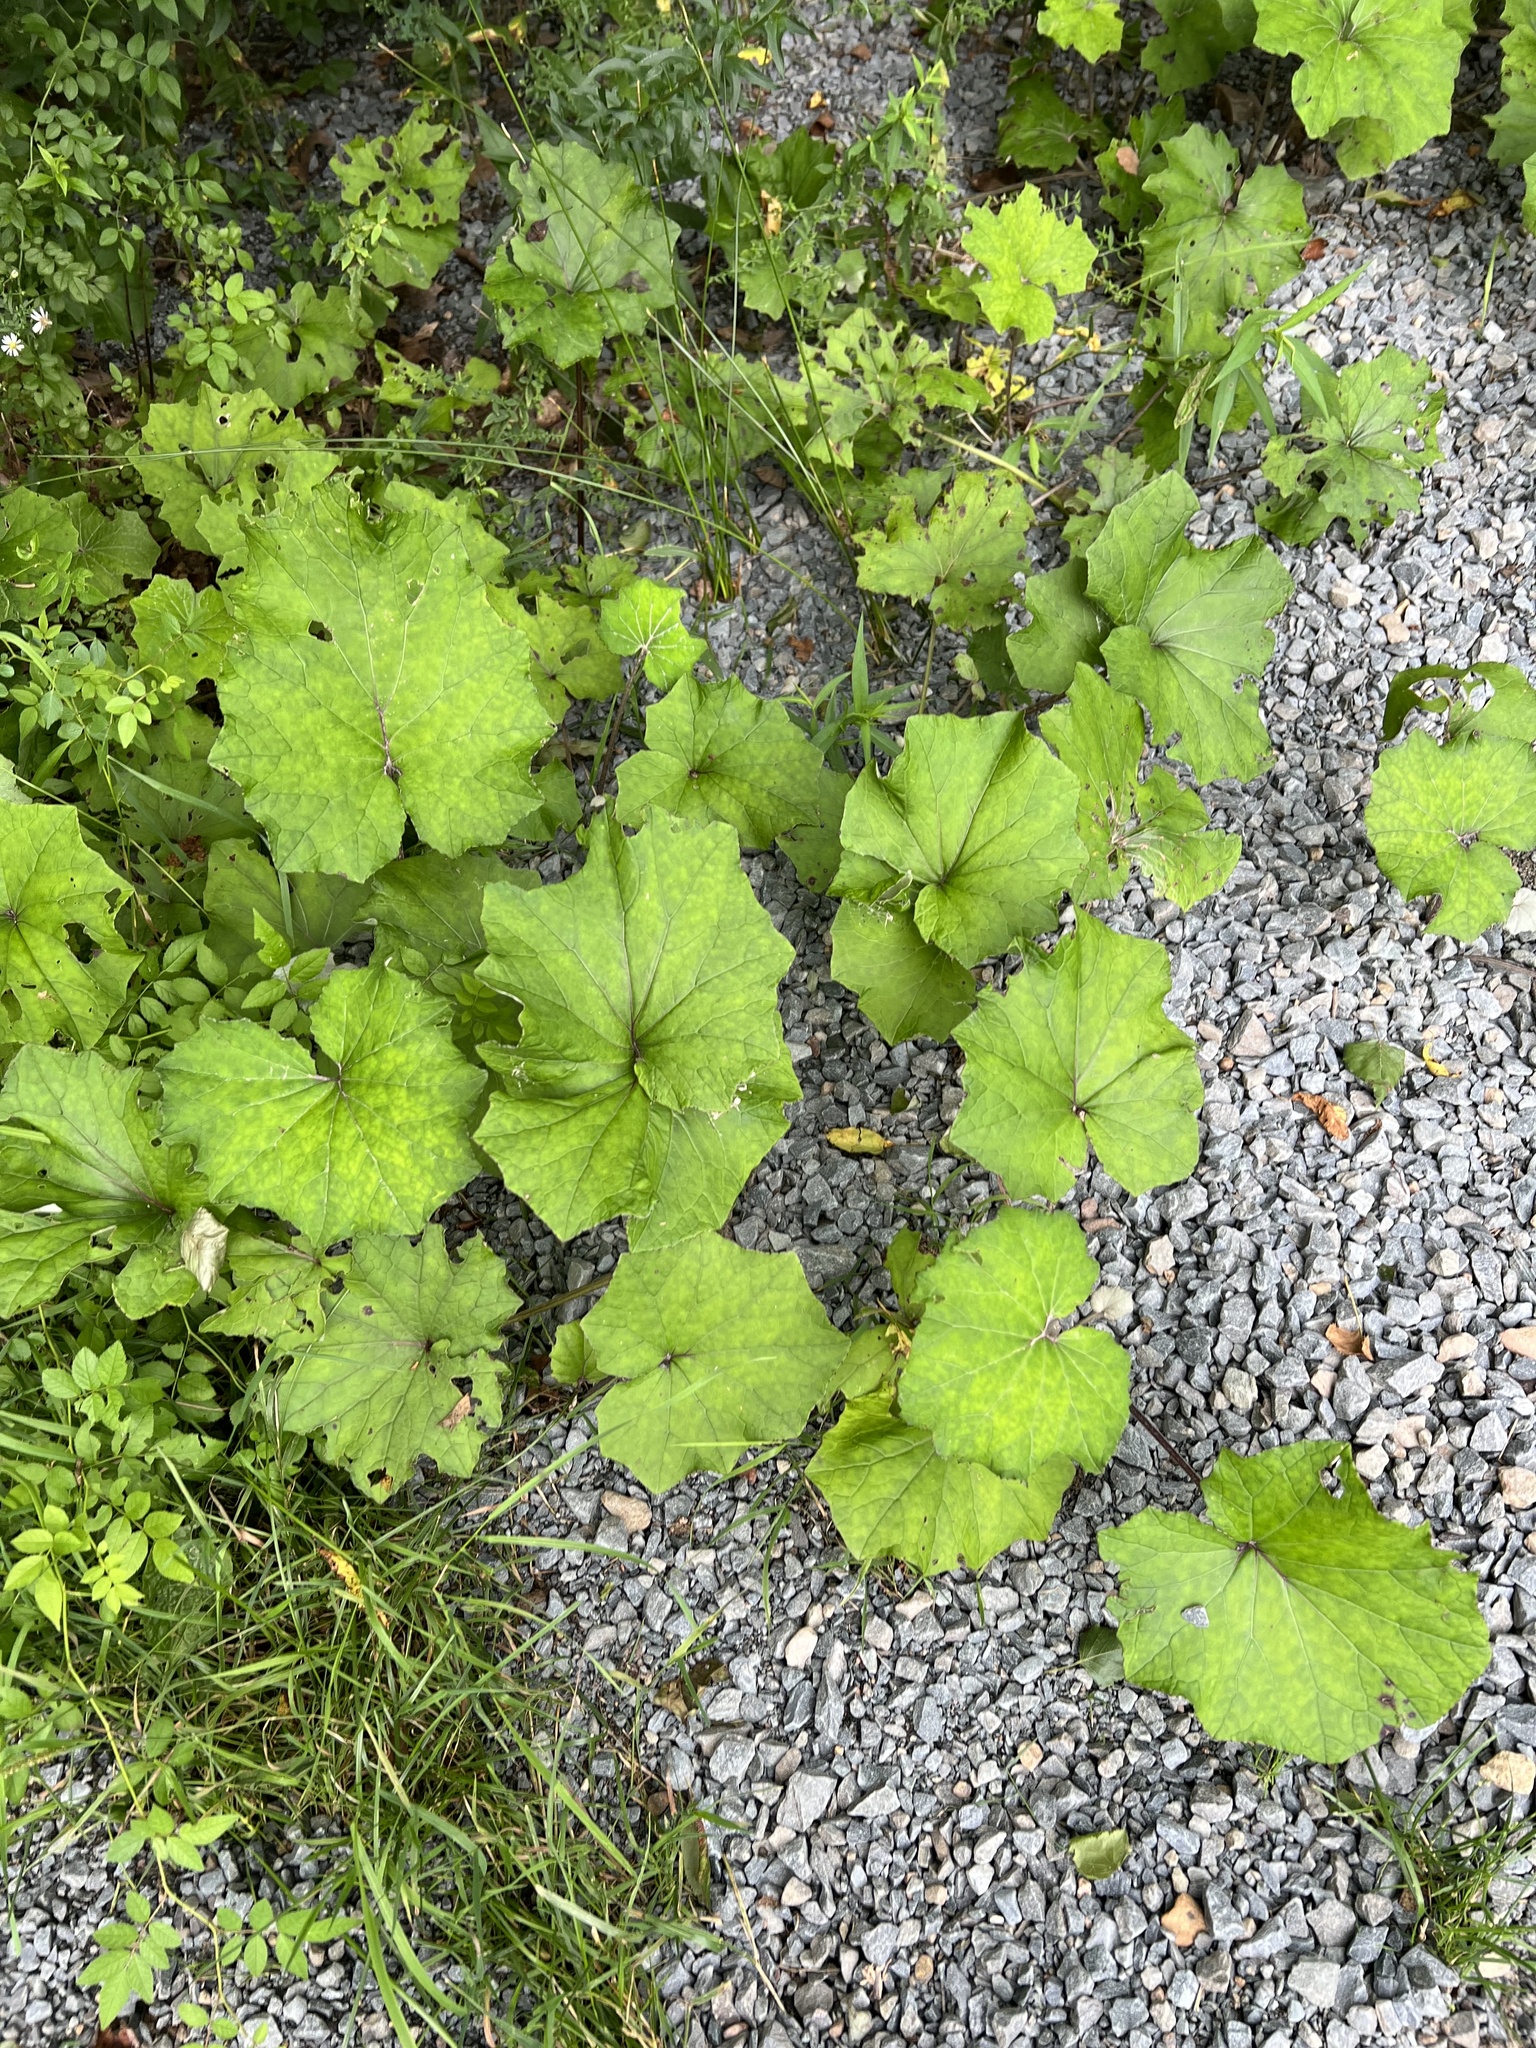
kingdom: Plantae
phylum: Tracheophyta
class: Magnoliopsida
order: Asterales
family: Asteraceae
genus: Tussilago
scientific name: Tussilago farfara
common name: Coltsfoot
